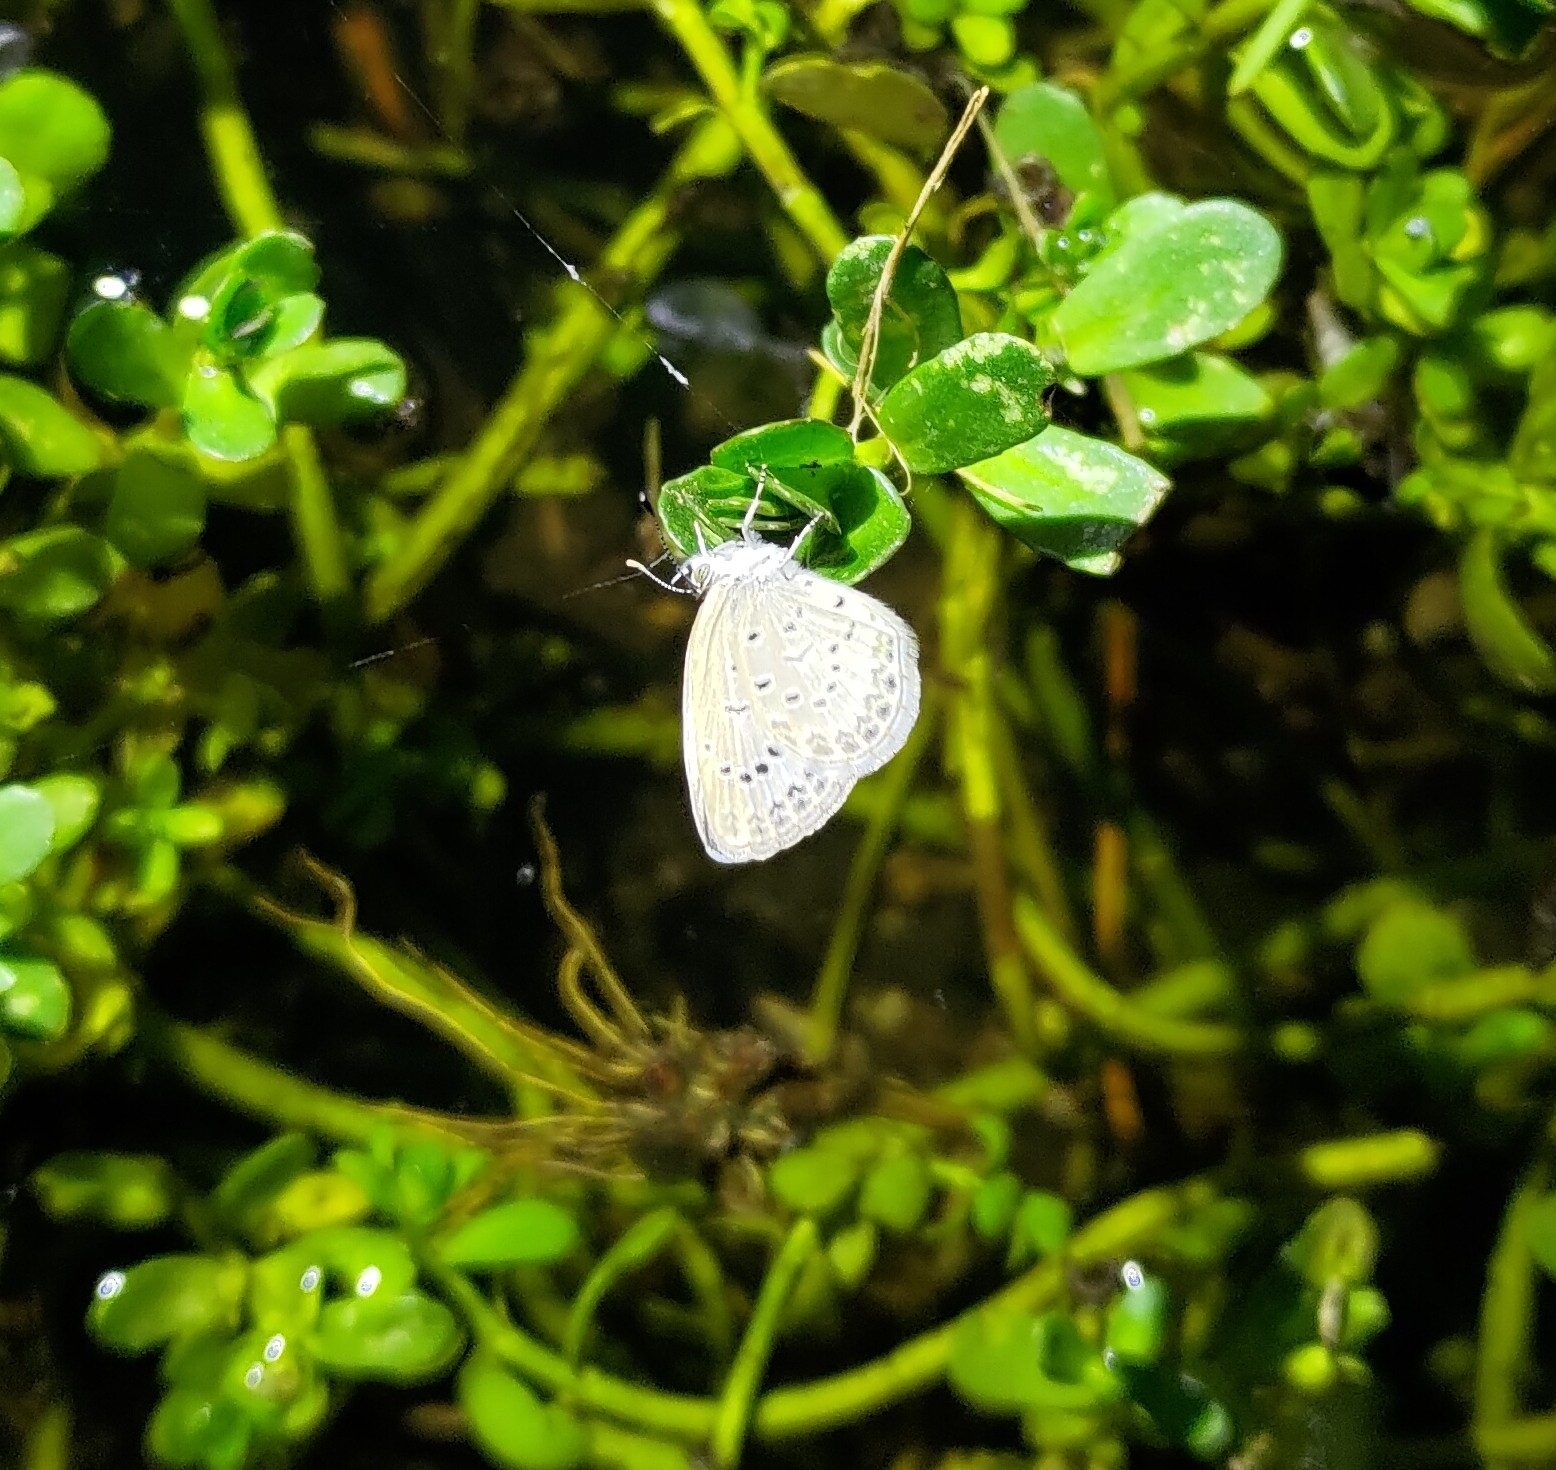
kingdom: Animalia
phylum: Arthropoda
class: Insecta
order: Lepidoptera
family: Lycaenidae
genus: Pseudozizeeria
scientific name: Pseudozizeeria maha
